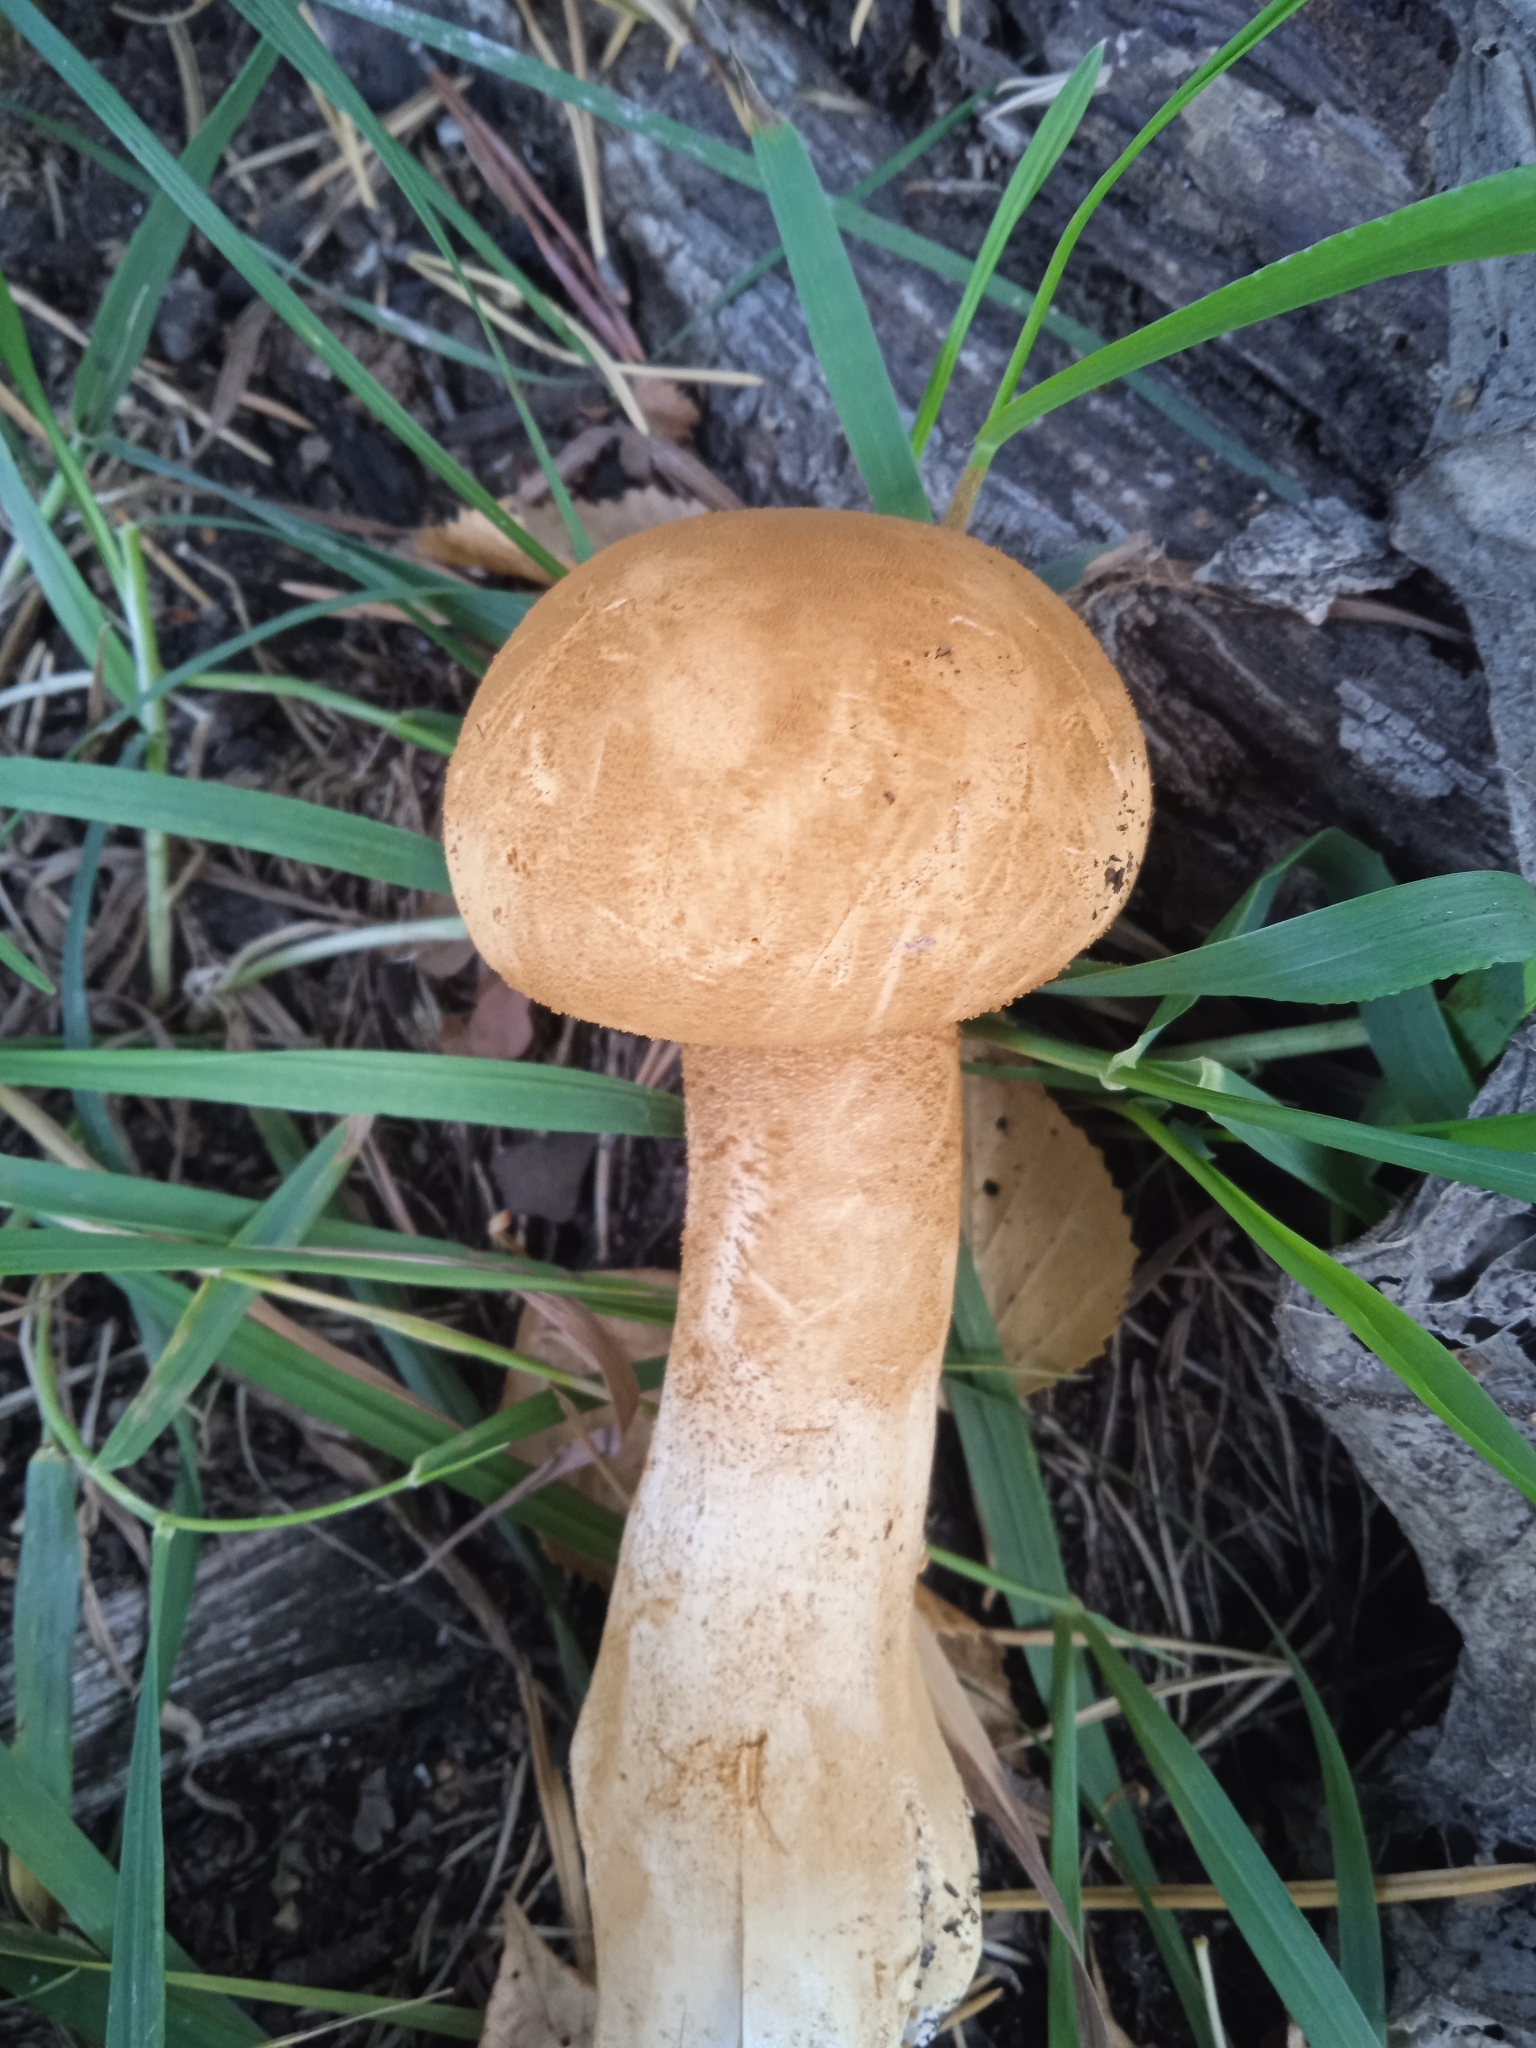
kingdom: Fungi
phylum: Basidiomycota
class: Agaricomycetes
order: Agaricales
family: Tricholomataceae
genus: Phaeolepiota
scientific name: Phaeolepiota aurea
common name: Golden bootleg
